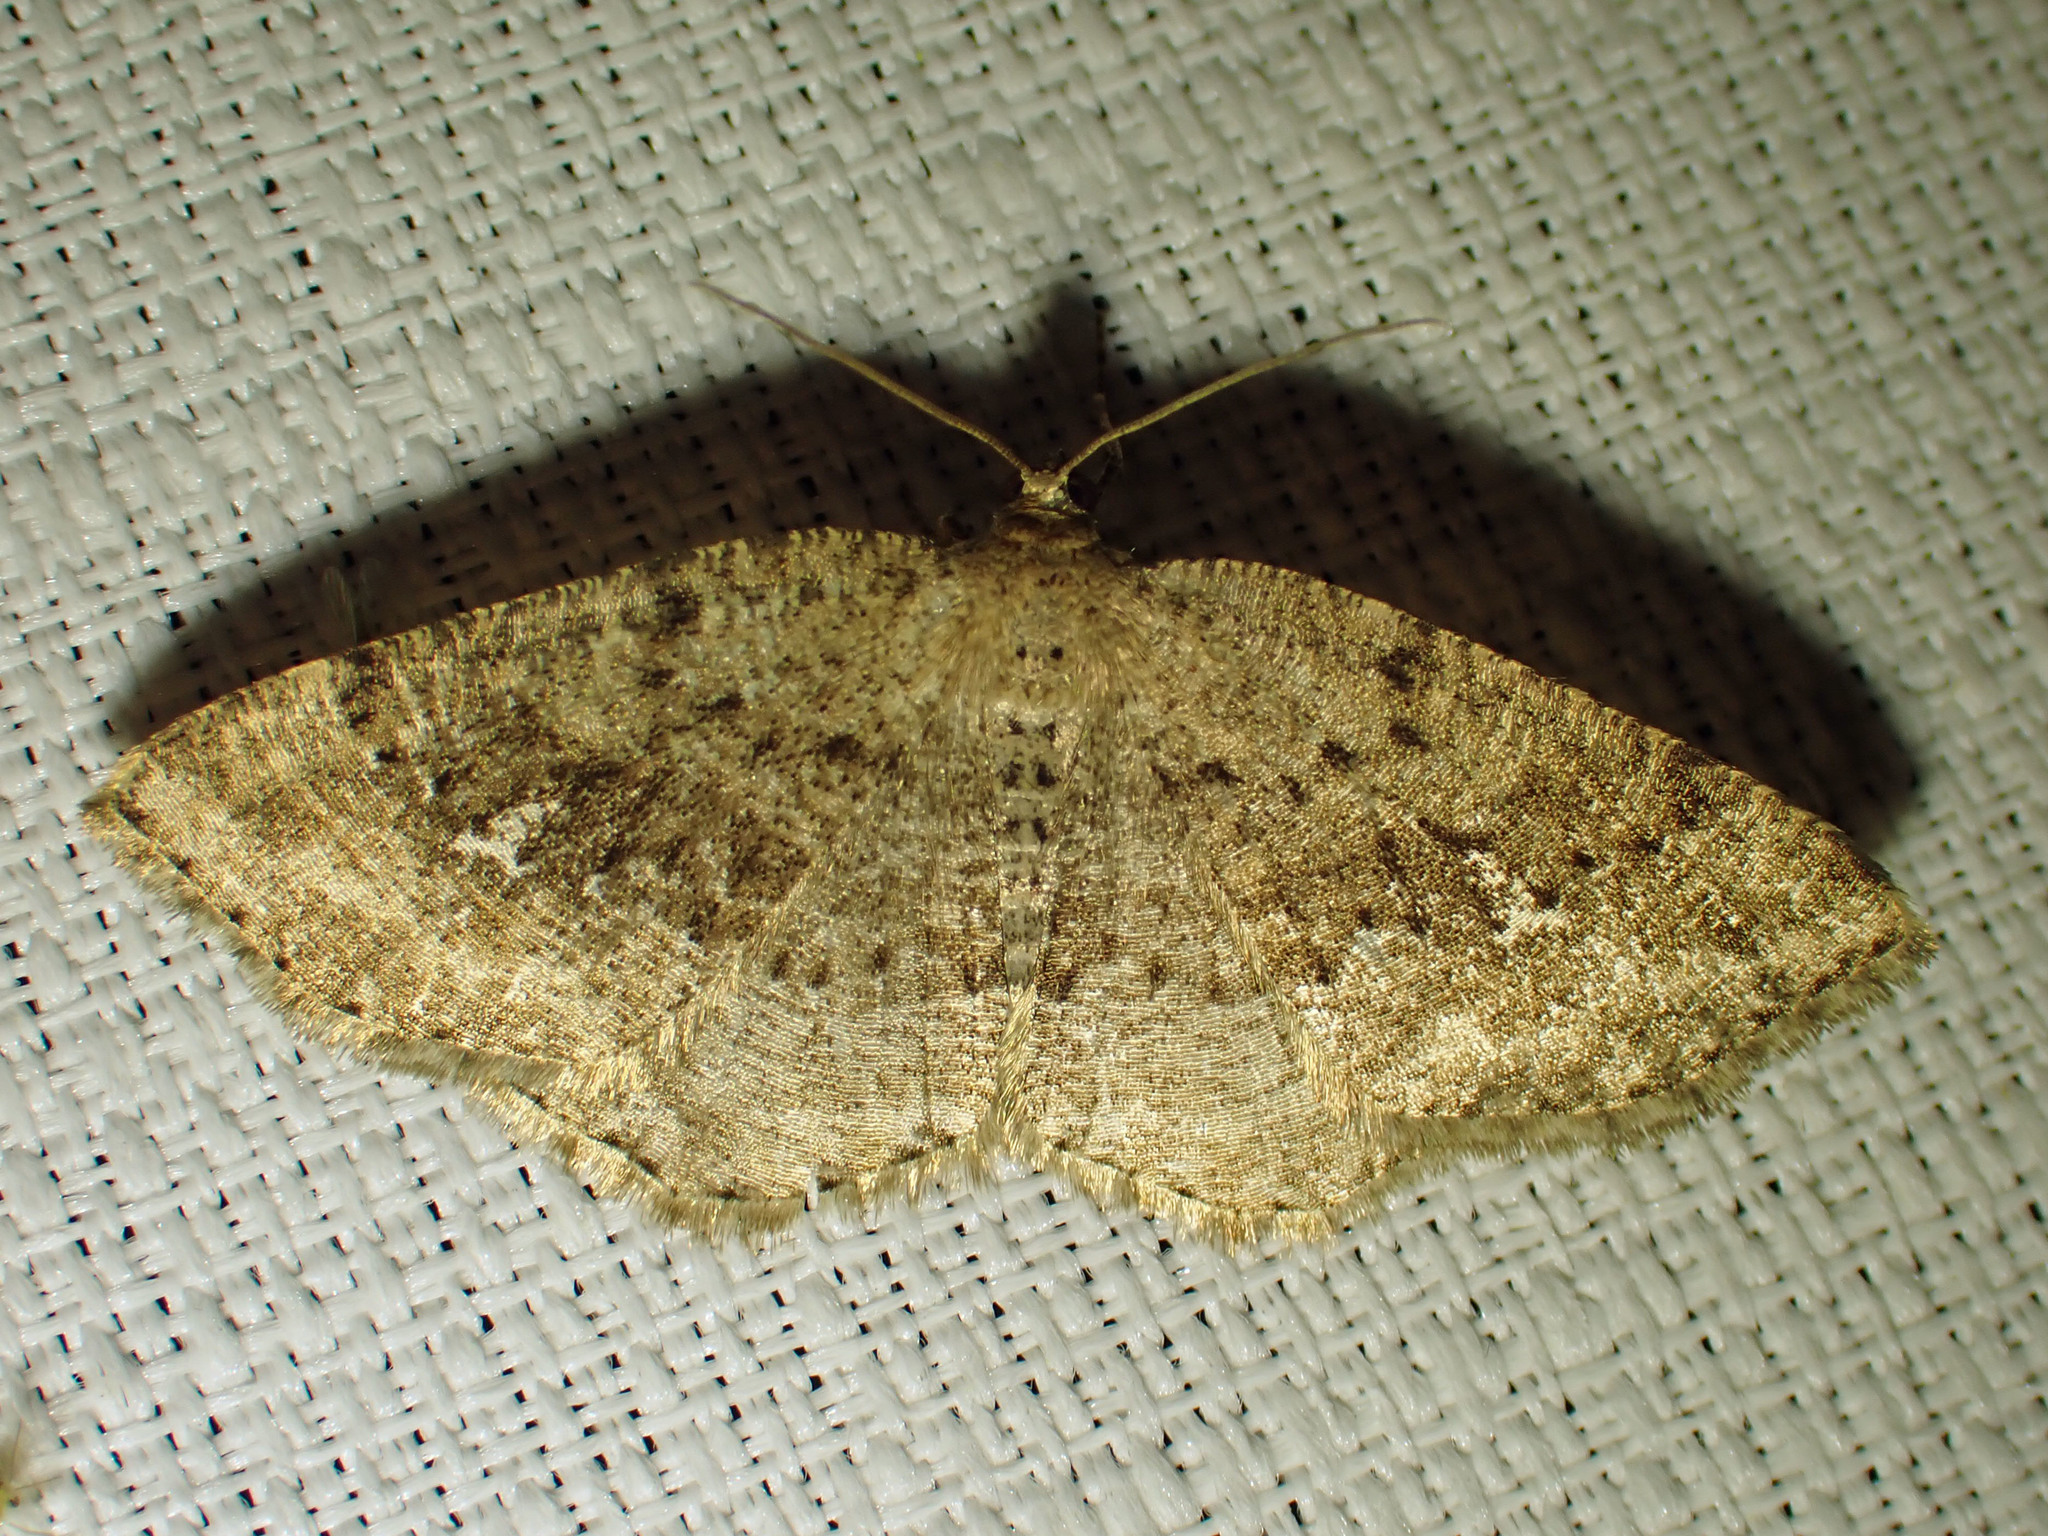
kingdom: Animalia
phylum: Arthropoda
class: Insecta
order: Lepidoptera
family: Geometridae
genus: Homochlodes
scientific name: Homochlodes fritillaria
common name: Pale homochlodes
